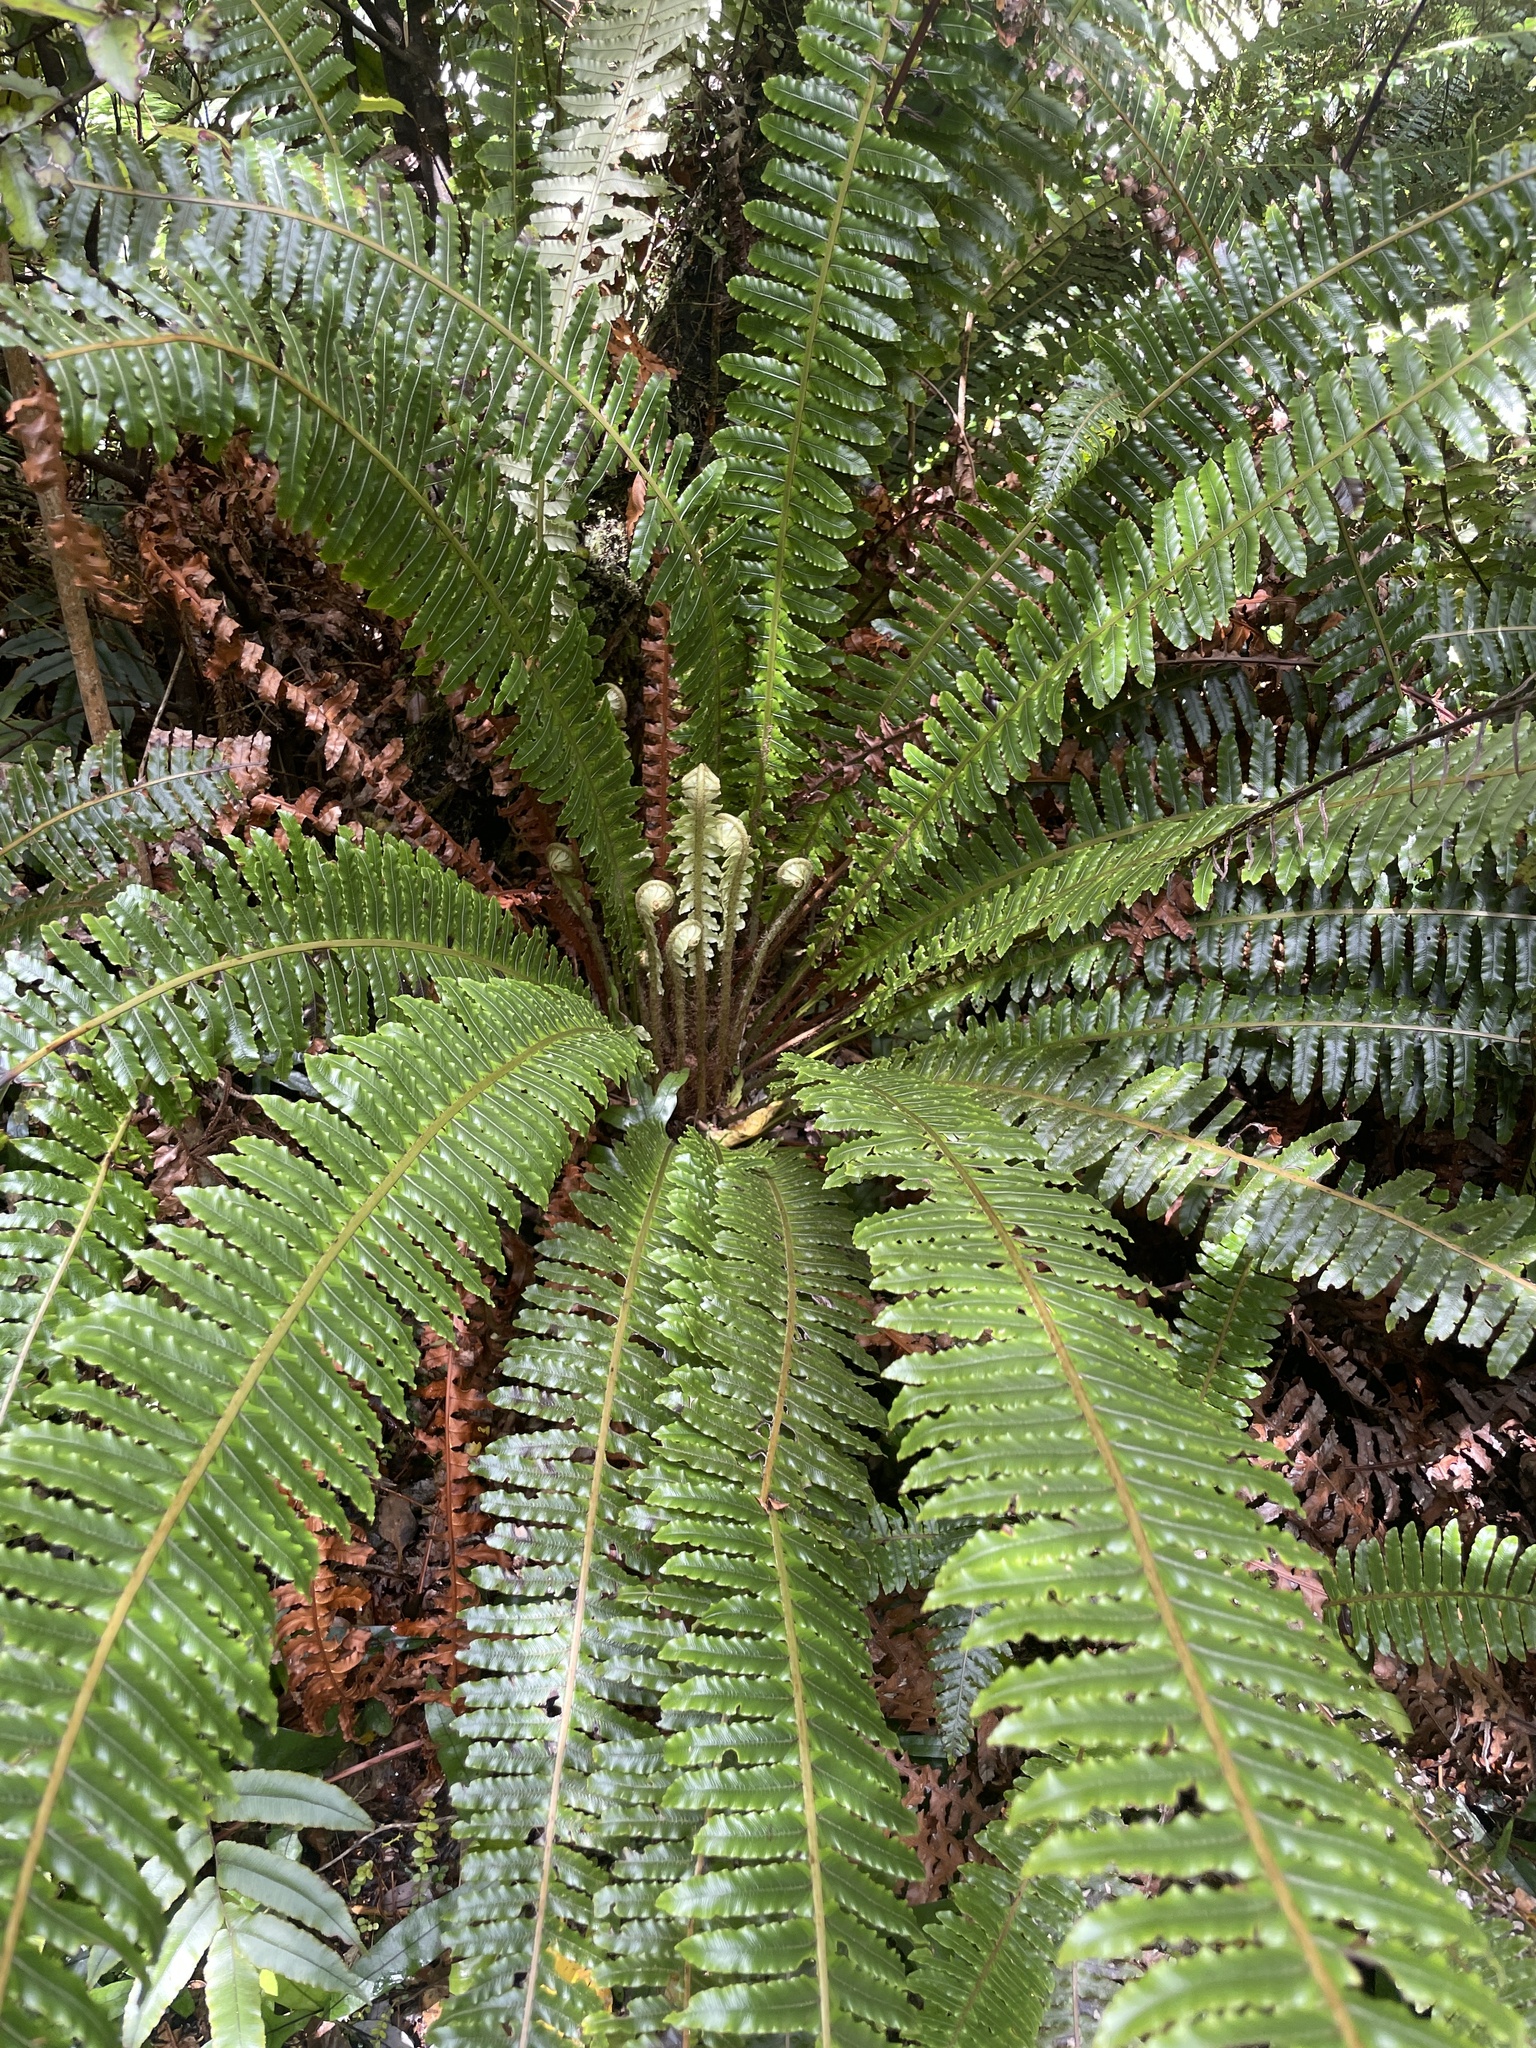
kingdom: Plantae
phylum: Tracheophyta
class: Polypodiopsida
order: Polypodiales
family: Blechnaceae
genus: Lomaria
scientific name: Lomaria discolor
